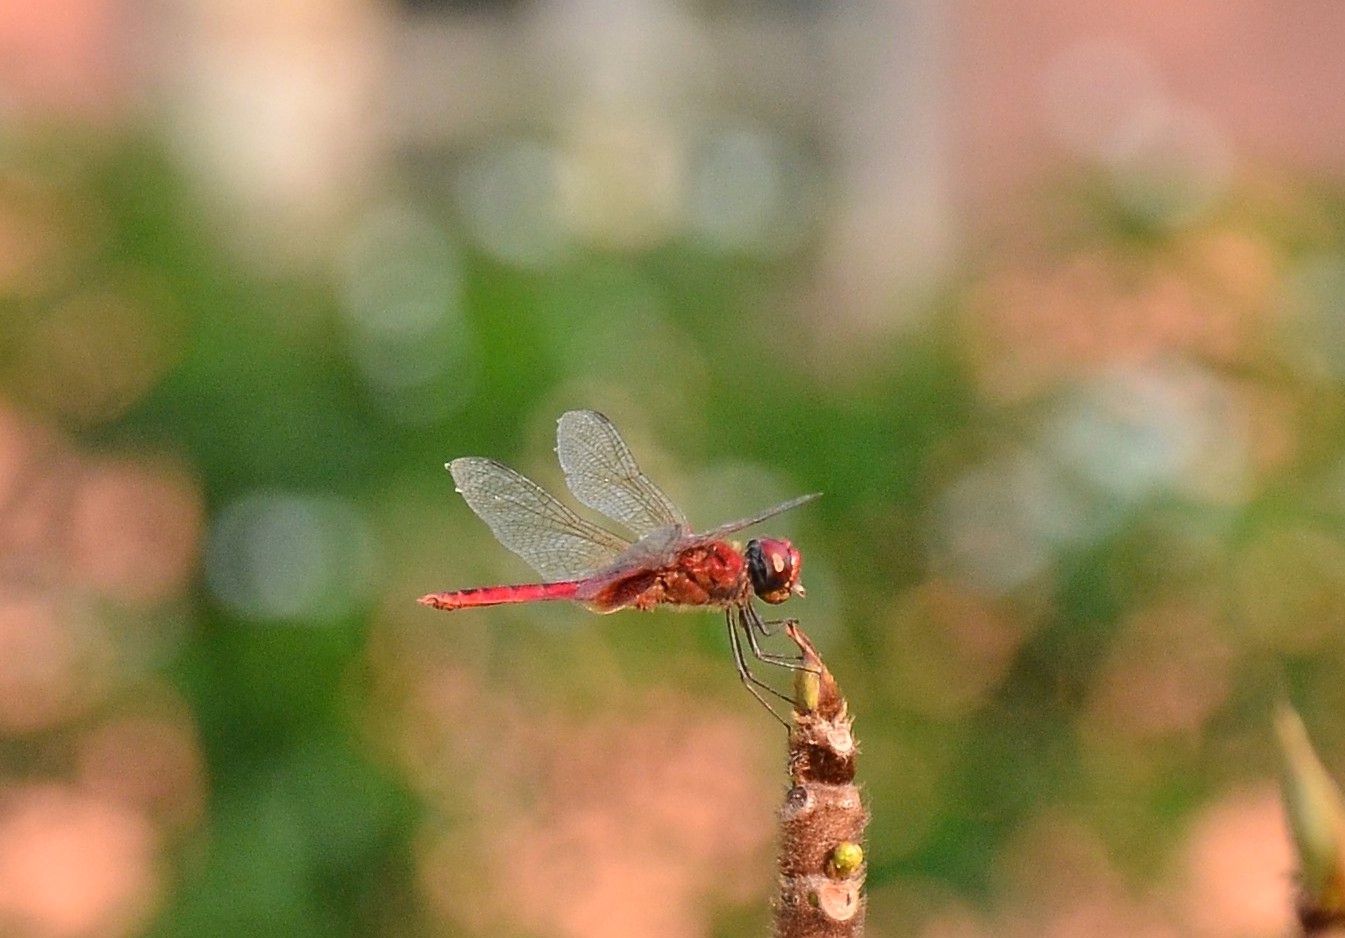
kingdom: Animalia
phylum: Arthropoda
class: Insecta
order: Odonata
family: Libellulidae
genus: Urothemis
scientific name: Urothemis signata
